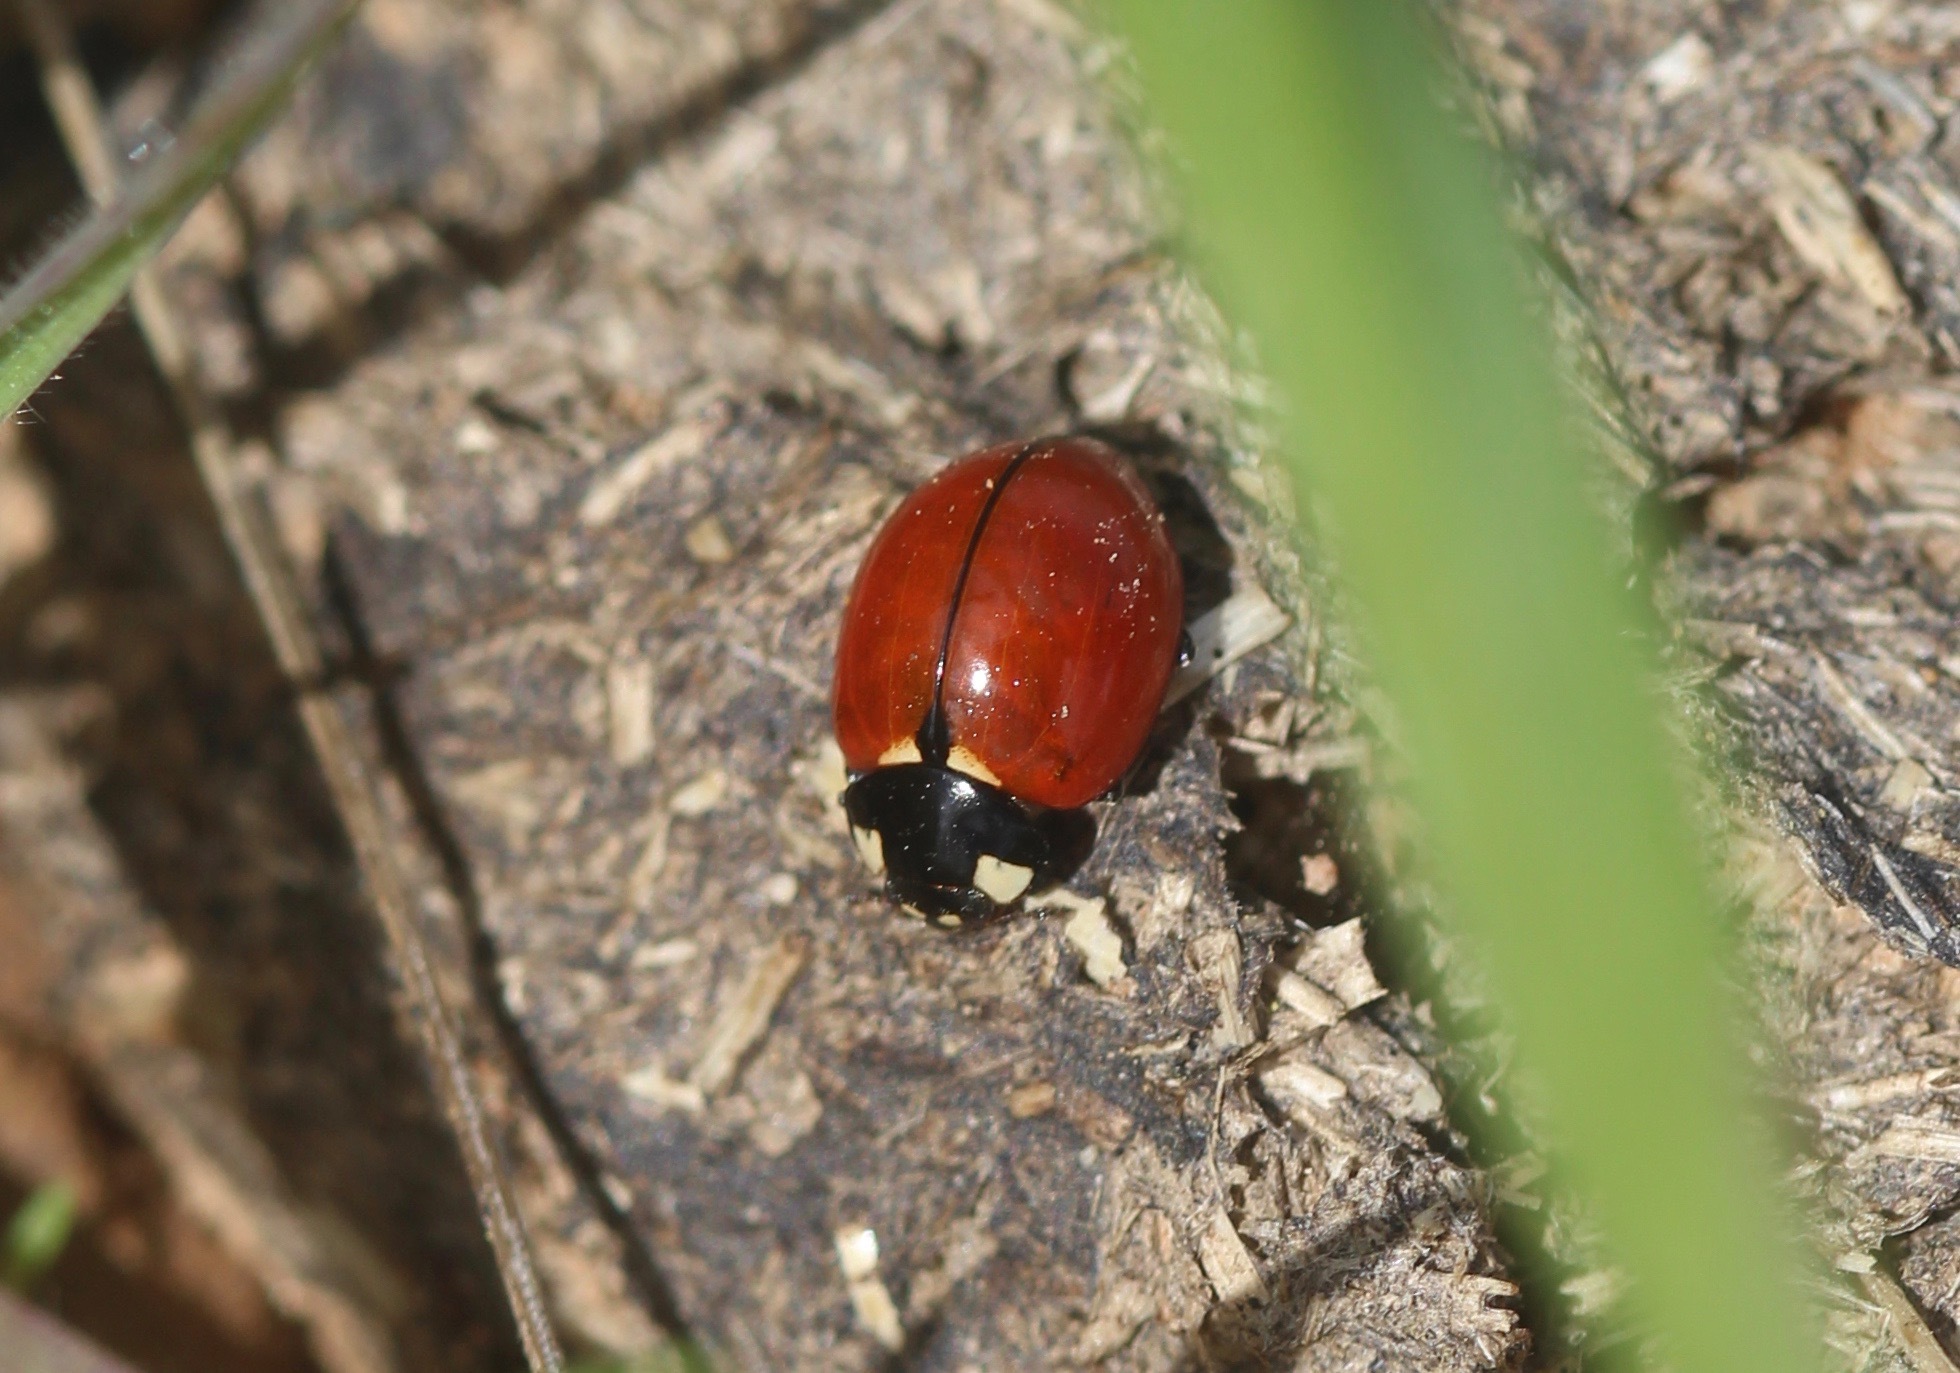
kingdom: Animalia
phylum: Arthropoda
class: Insecta
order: Coleoptera
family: Coccinellidae
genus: Coccinella
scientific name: Coccinella californica
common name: Lady beetle
